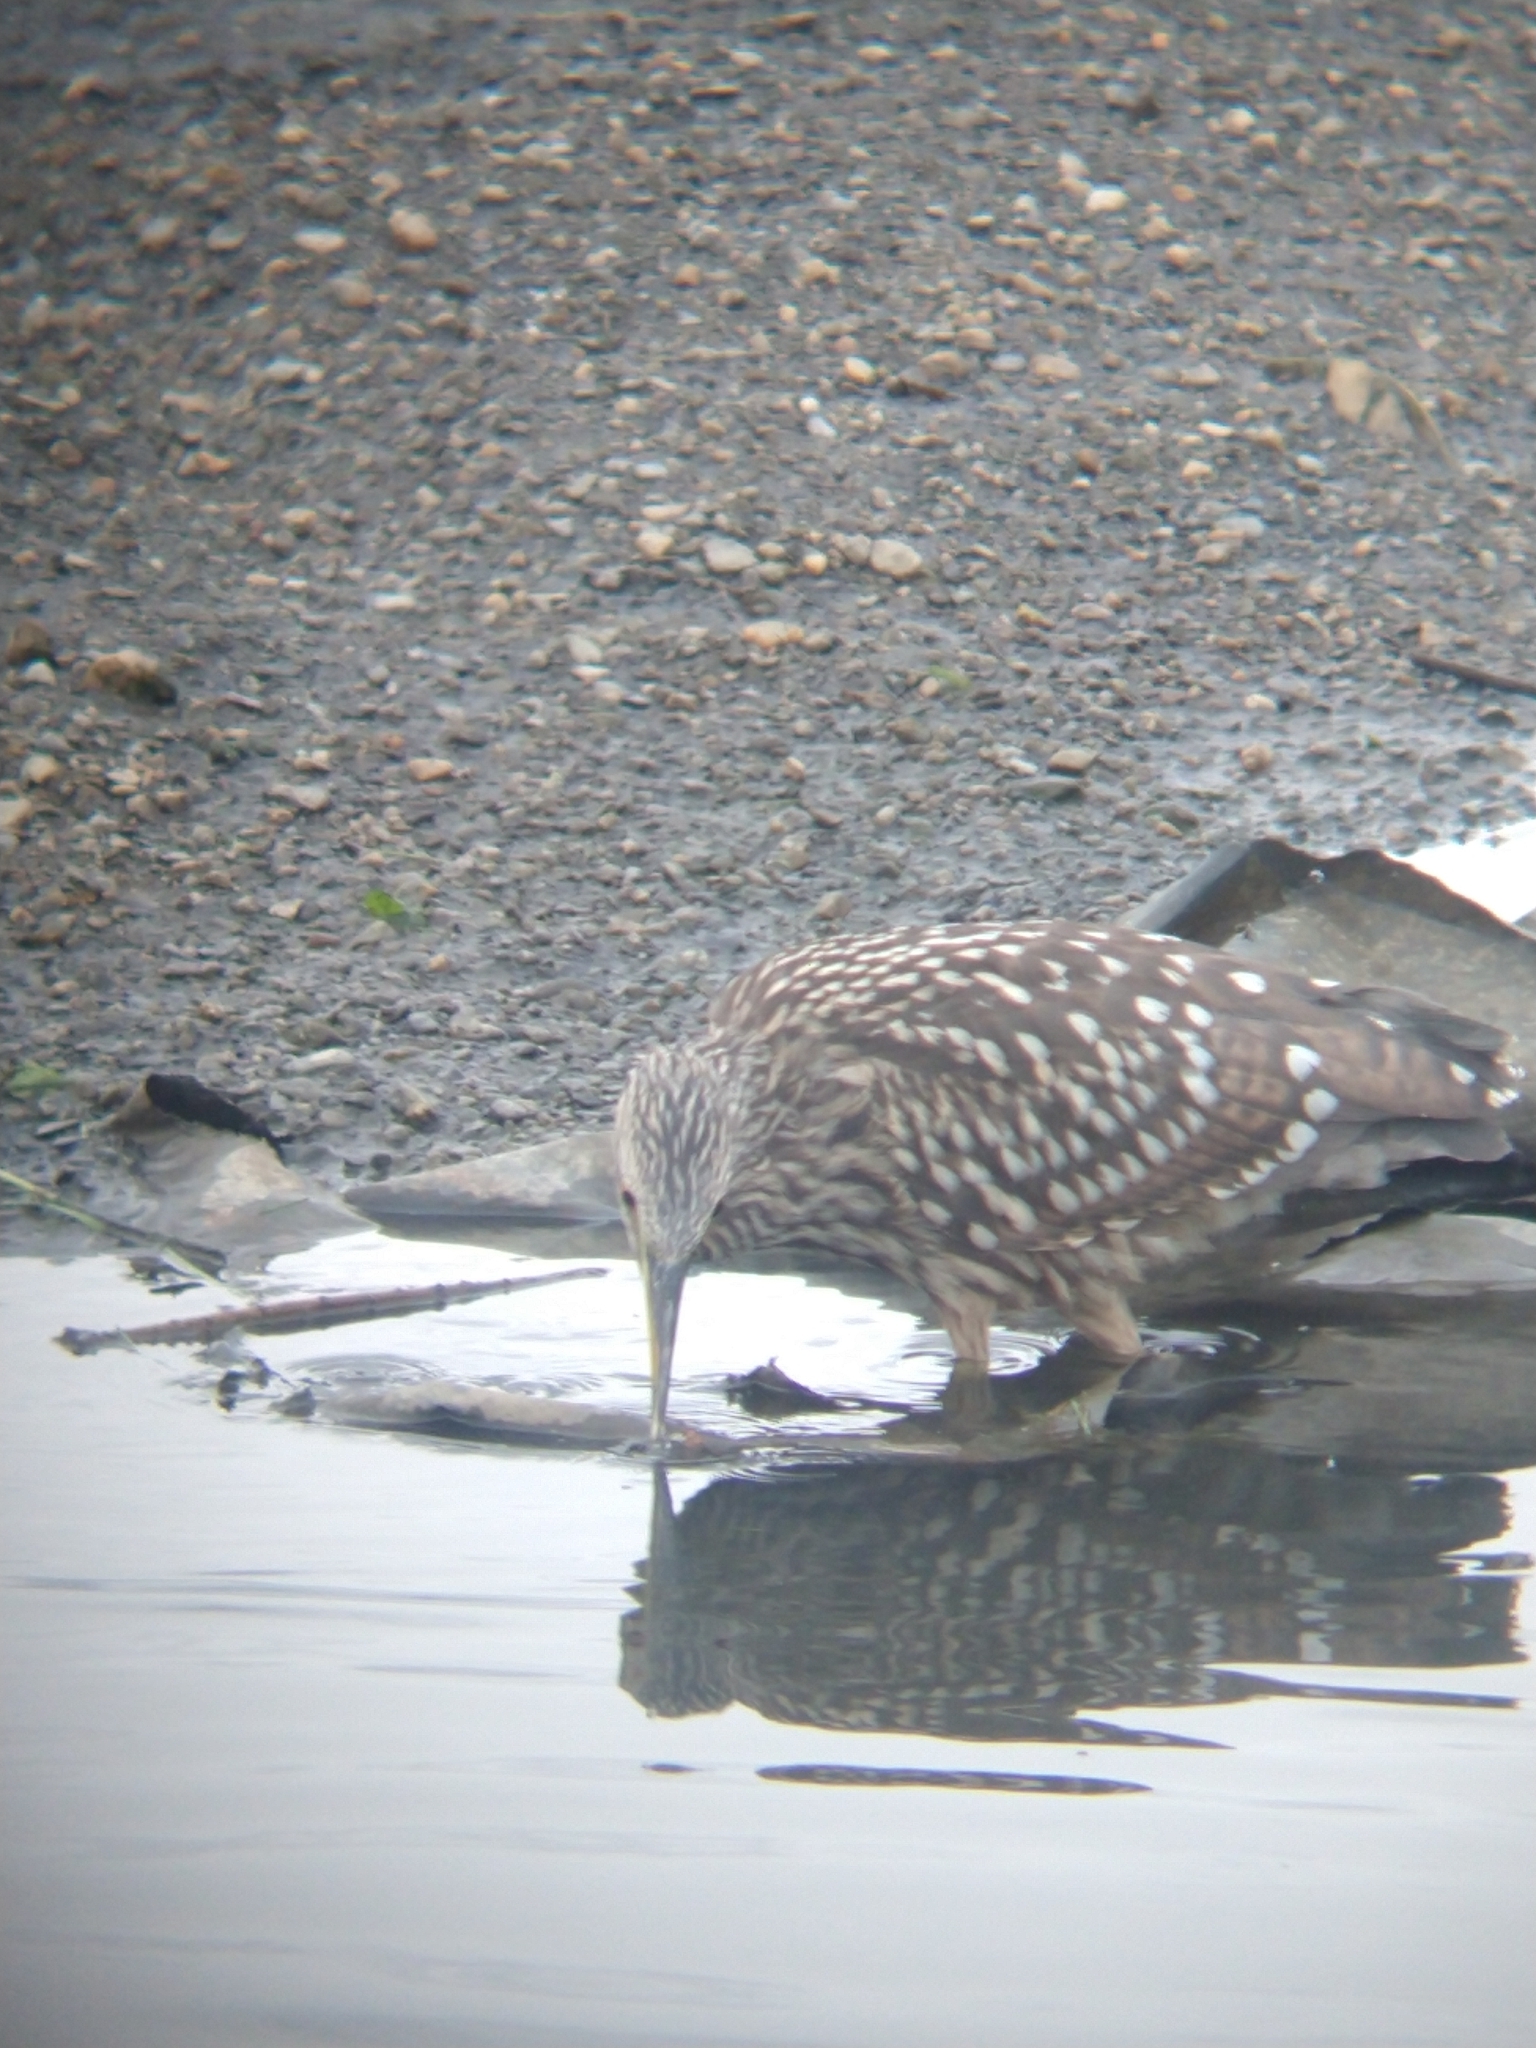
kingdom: Animalia
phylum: Chordata
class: Aves
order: Pelecaniformes
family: Ardeidae
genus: Nycticorax
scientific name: Nycticorax nycticorax
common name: Black-crowned night heron
